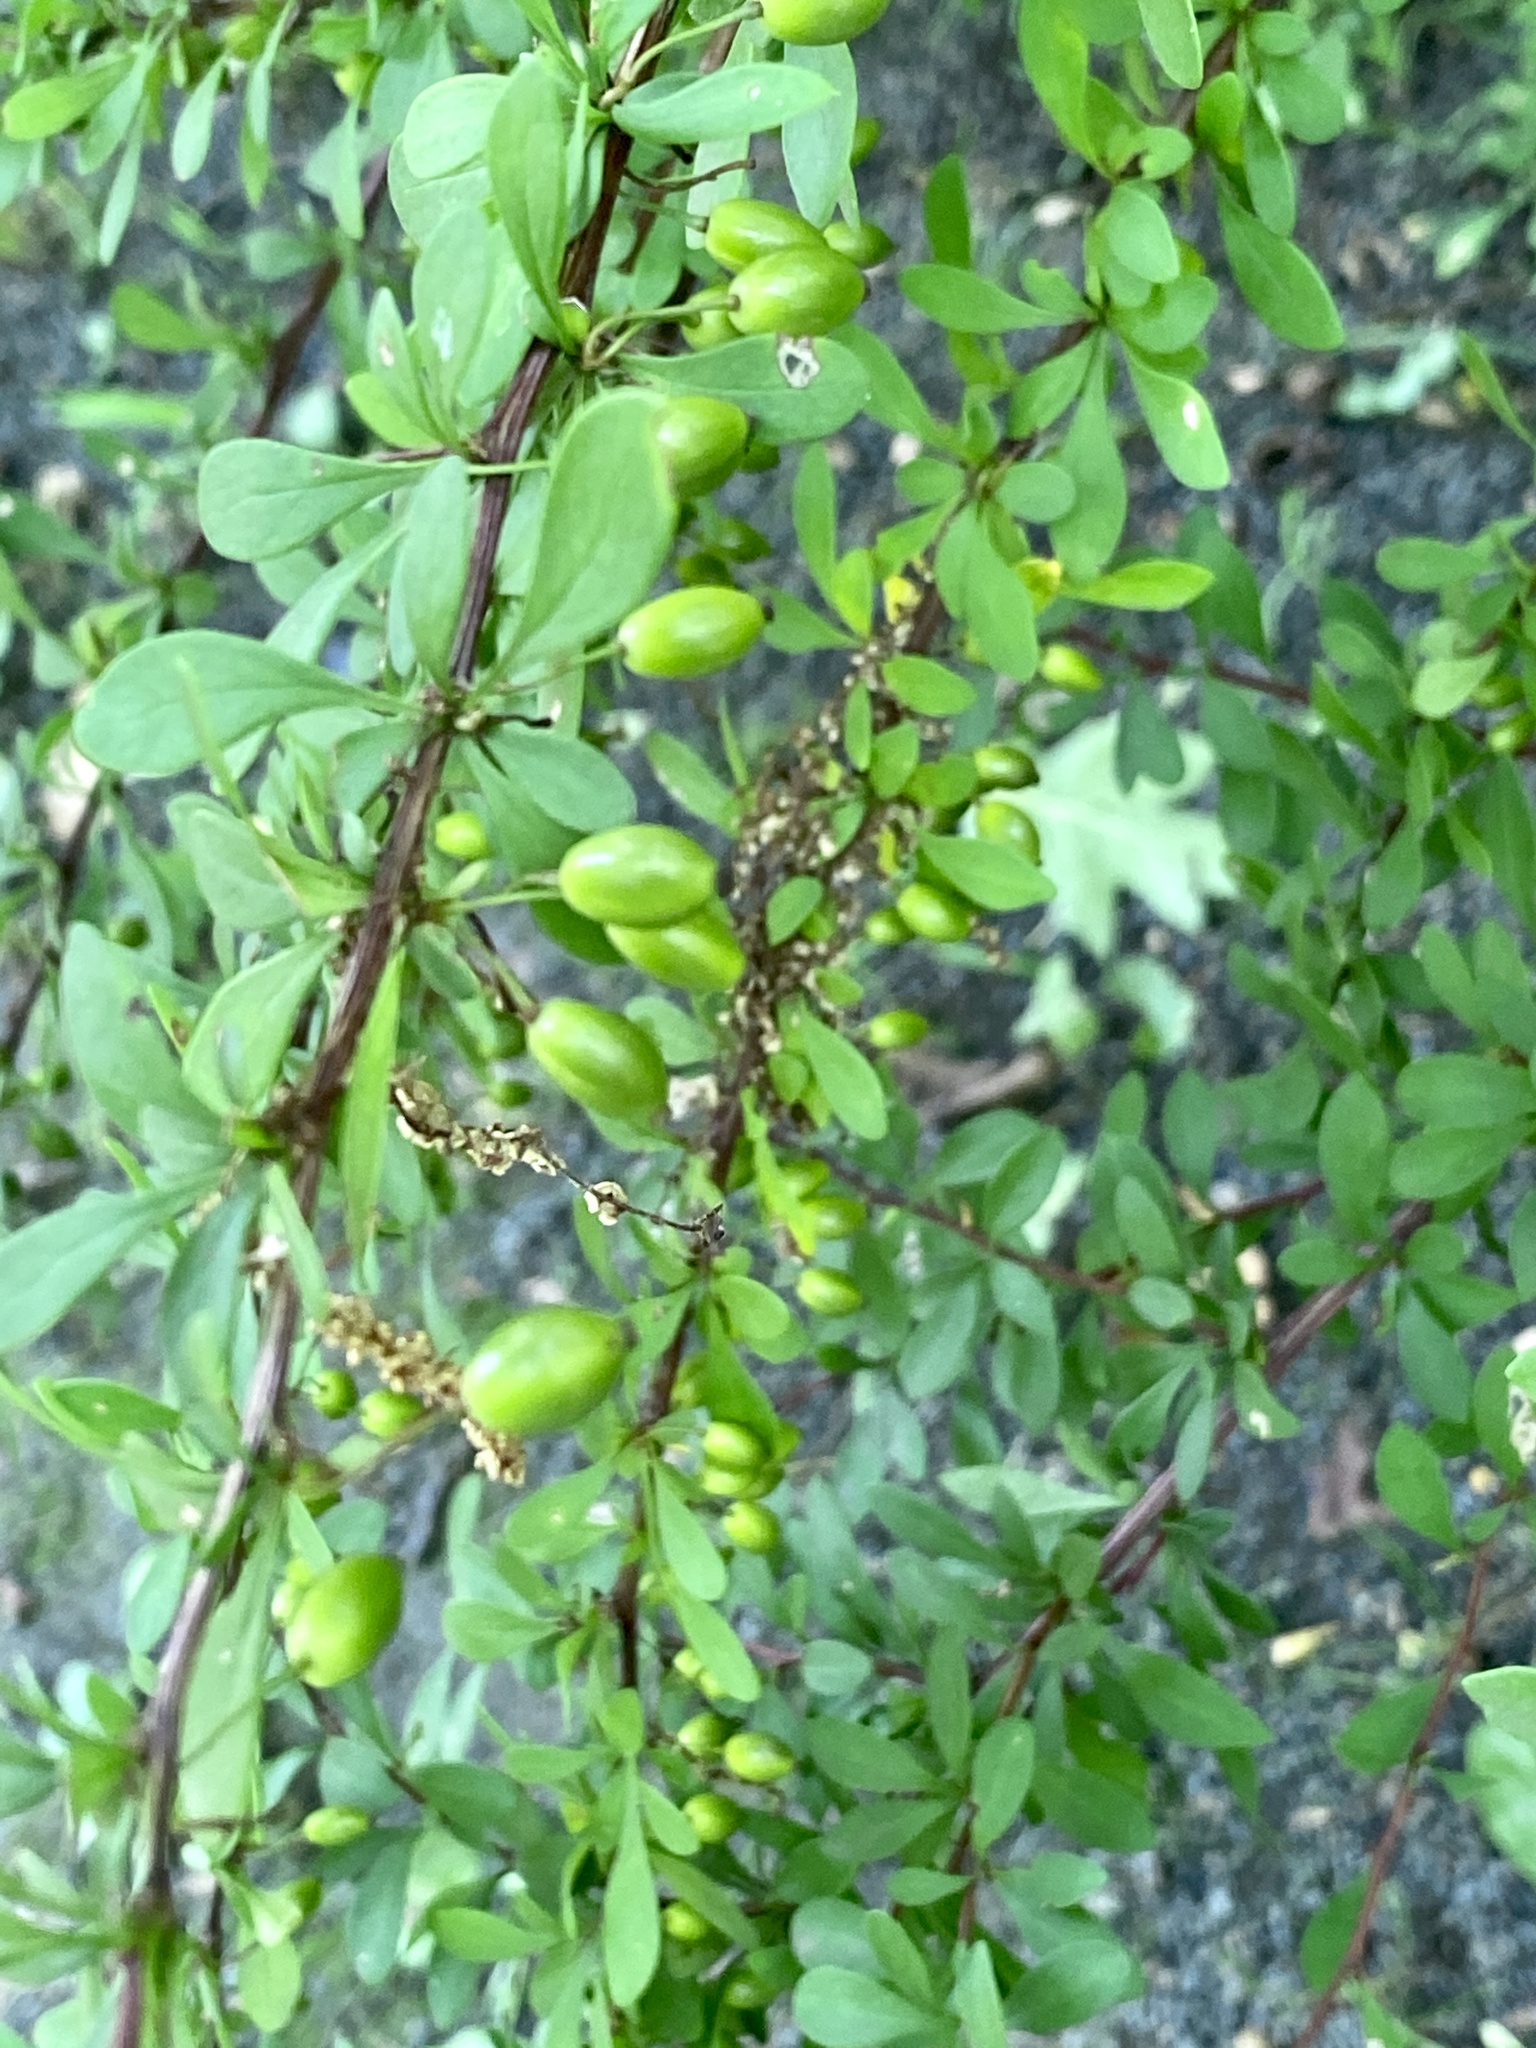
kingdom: Plantae
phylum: Tracheophyta
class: Magnoliopsida
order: Ranunculales
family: Berberidaceae
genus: Berberis
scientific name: Berberis thunbergii
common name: Japanese barberry
